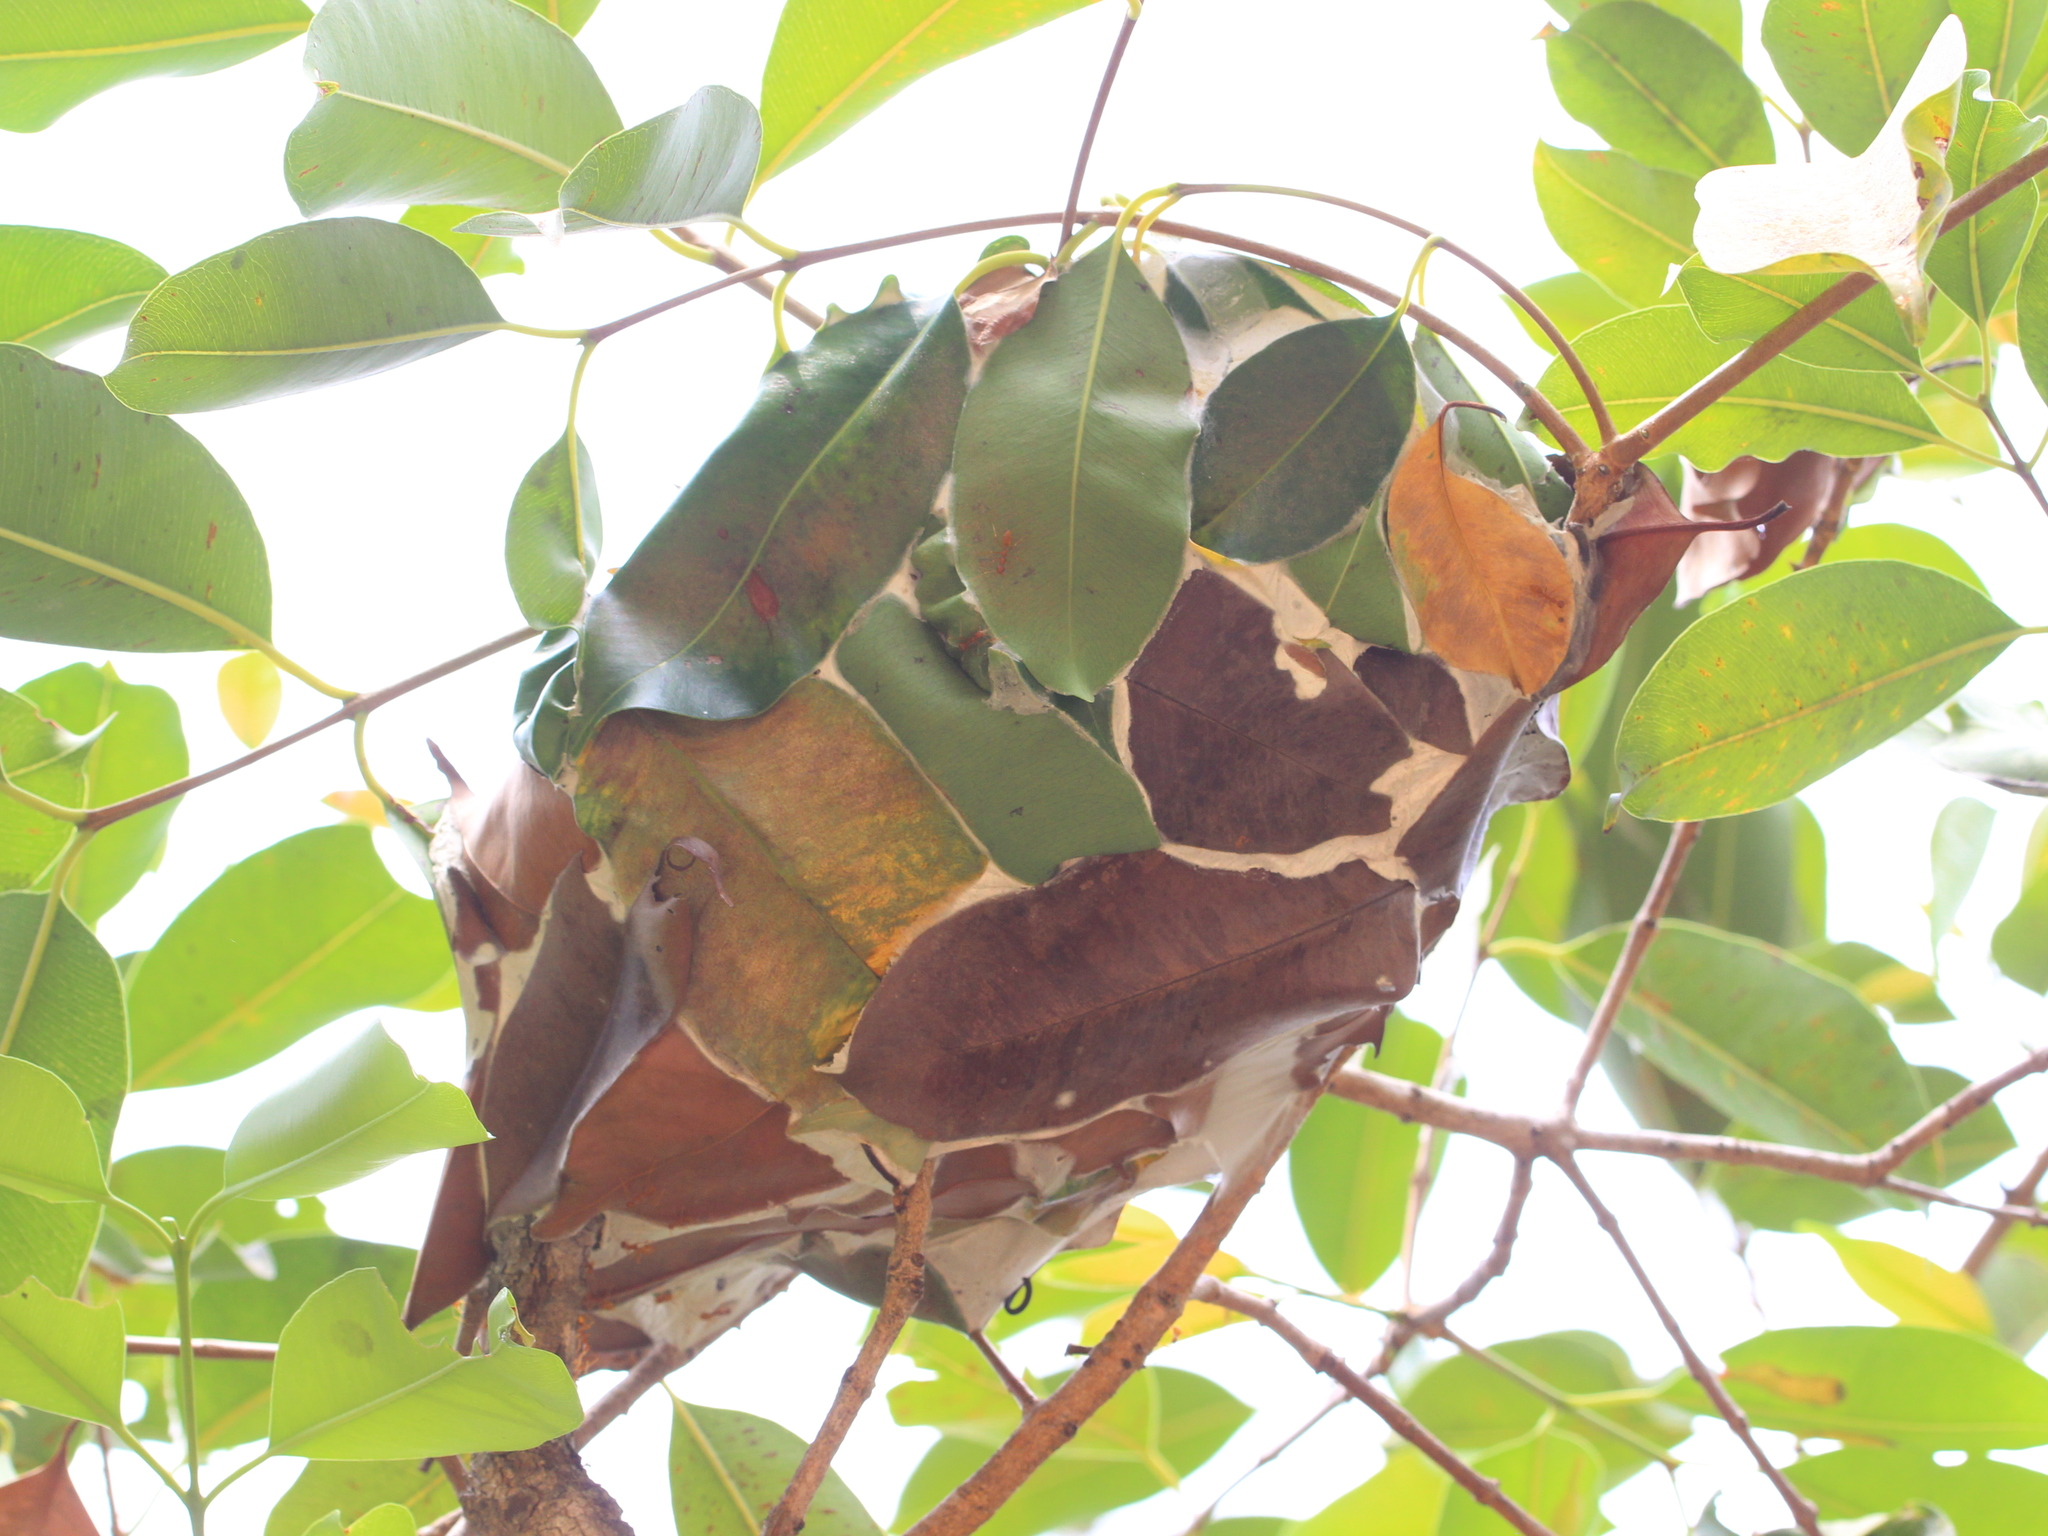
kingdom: Animalia
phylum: Arthropoda
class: Insecta
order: Hymenoptera
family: Formicidae
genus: Oecophylla
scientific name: Oecophylla smaragdina
